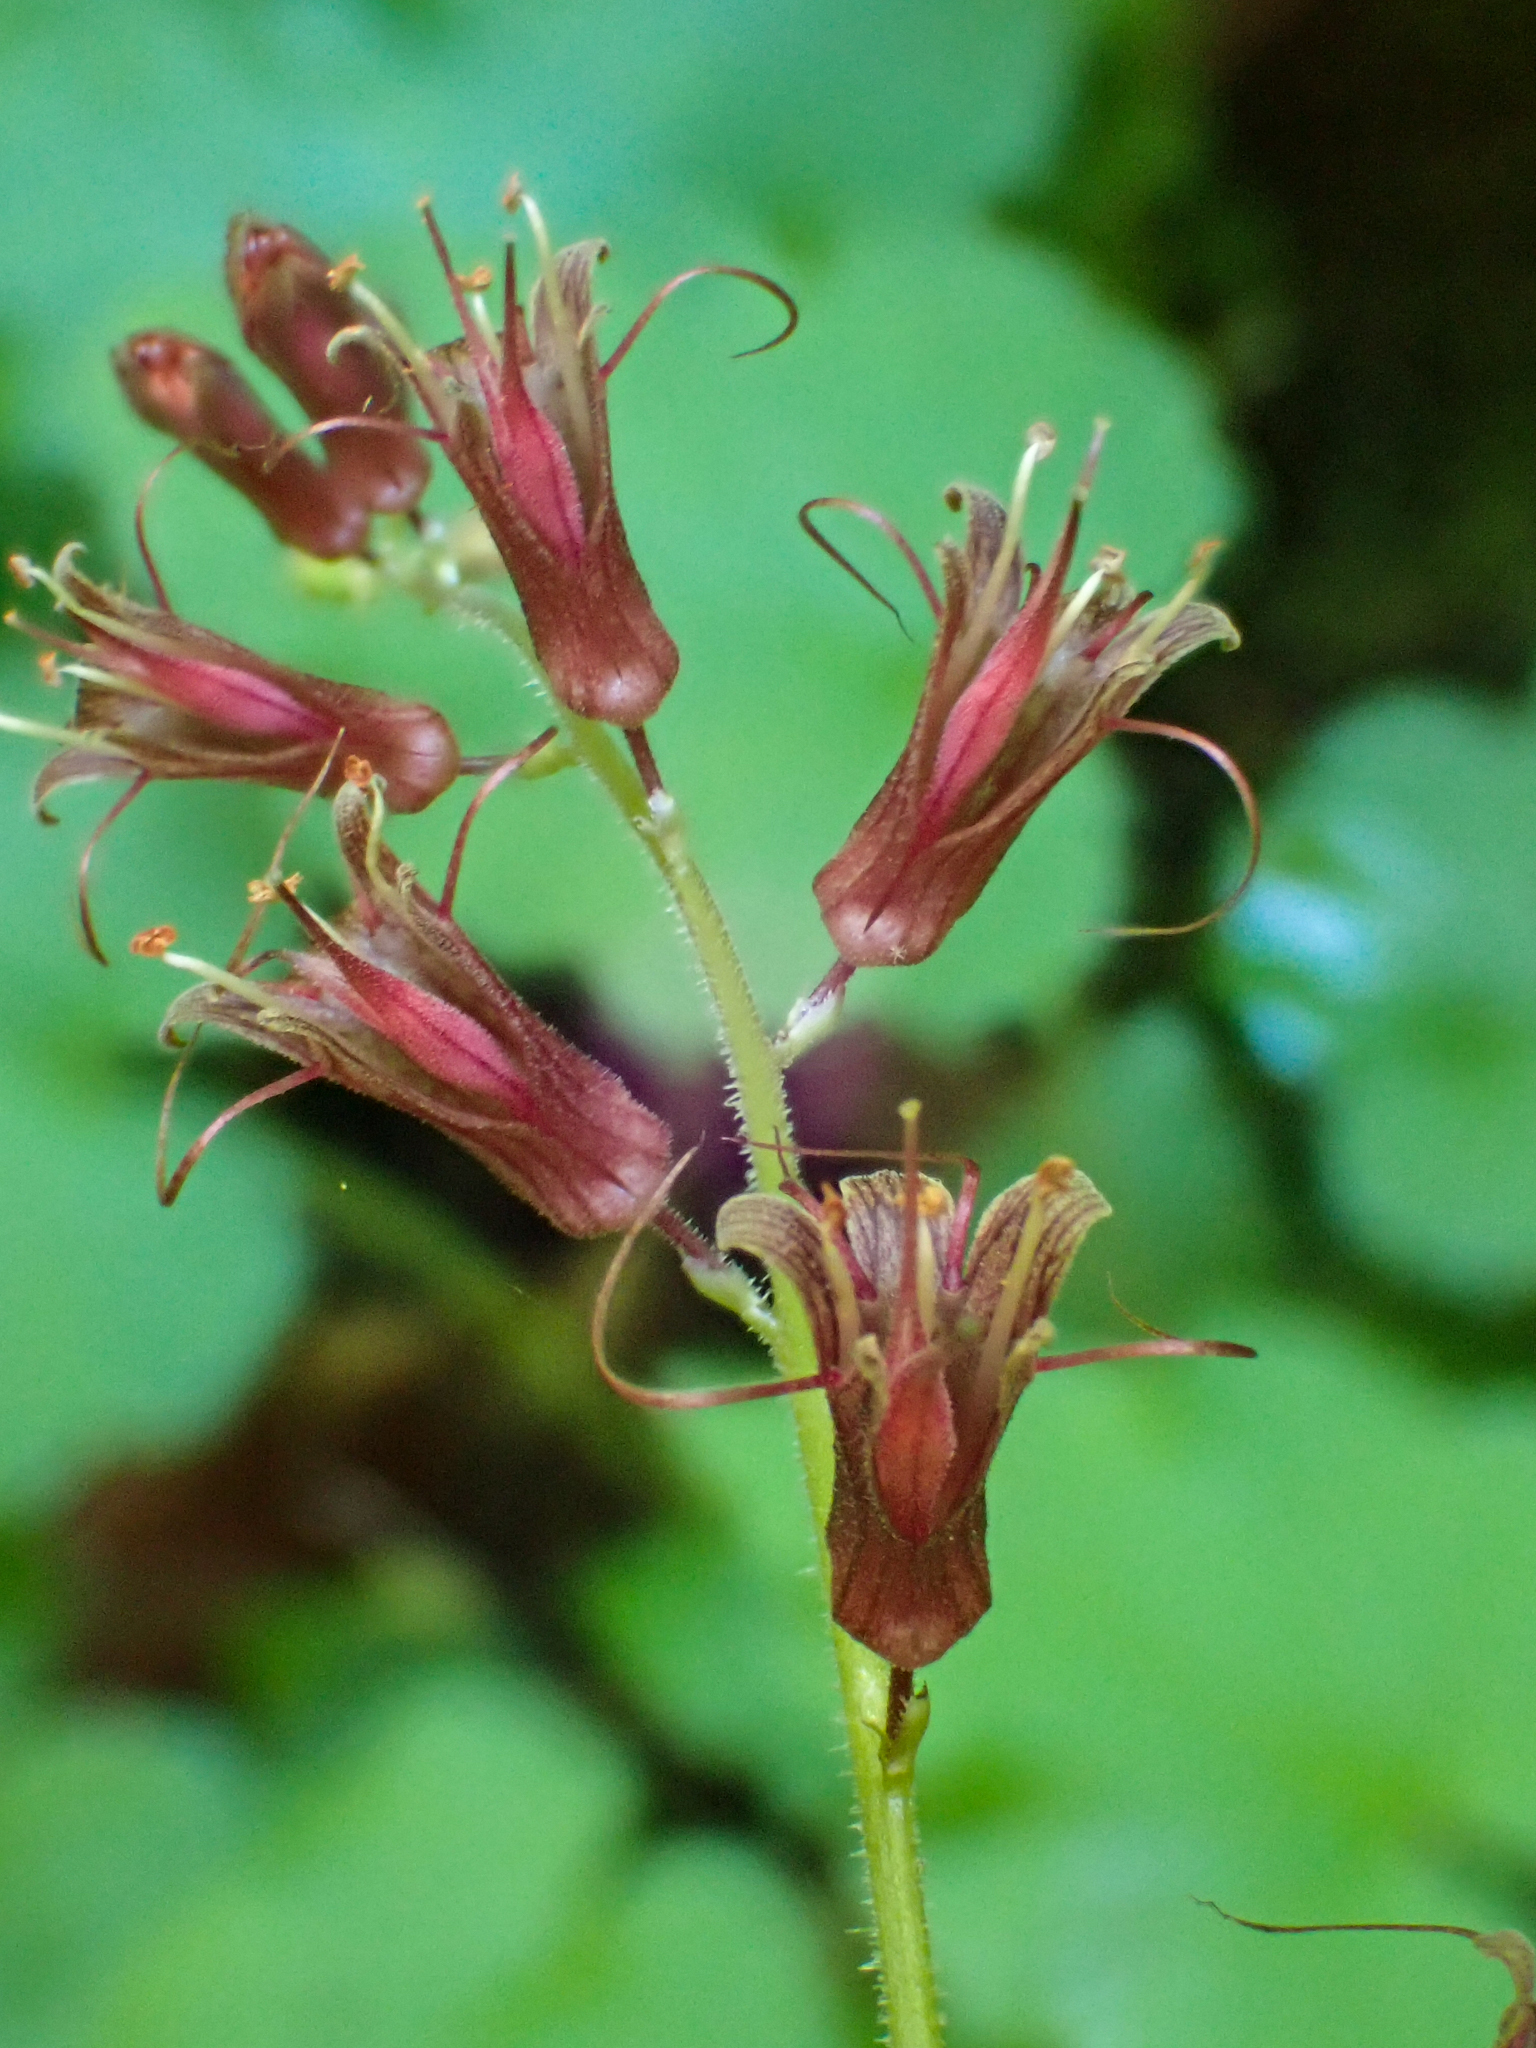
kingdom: Plantae
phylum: Tracheophyta
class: Magnoliopsida
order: Saxifragales
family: Saxifragaceae
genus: Tolmiea
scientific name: Tolmiea diplomenziesii
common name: Youth on age
